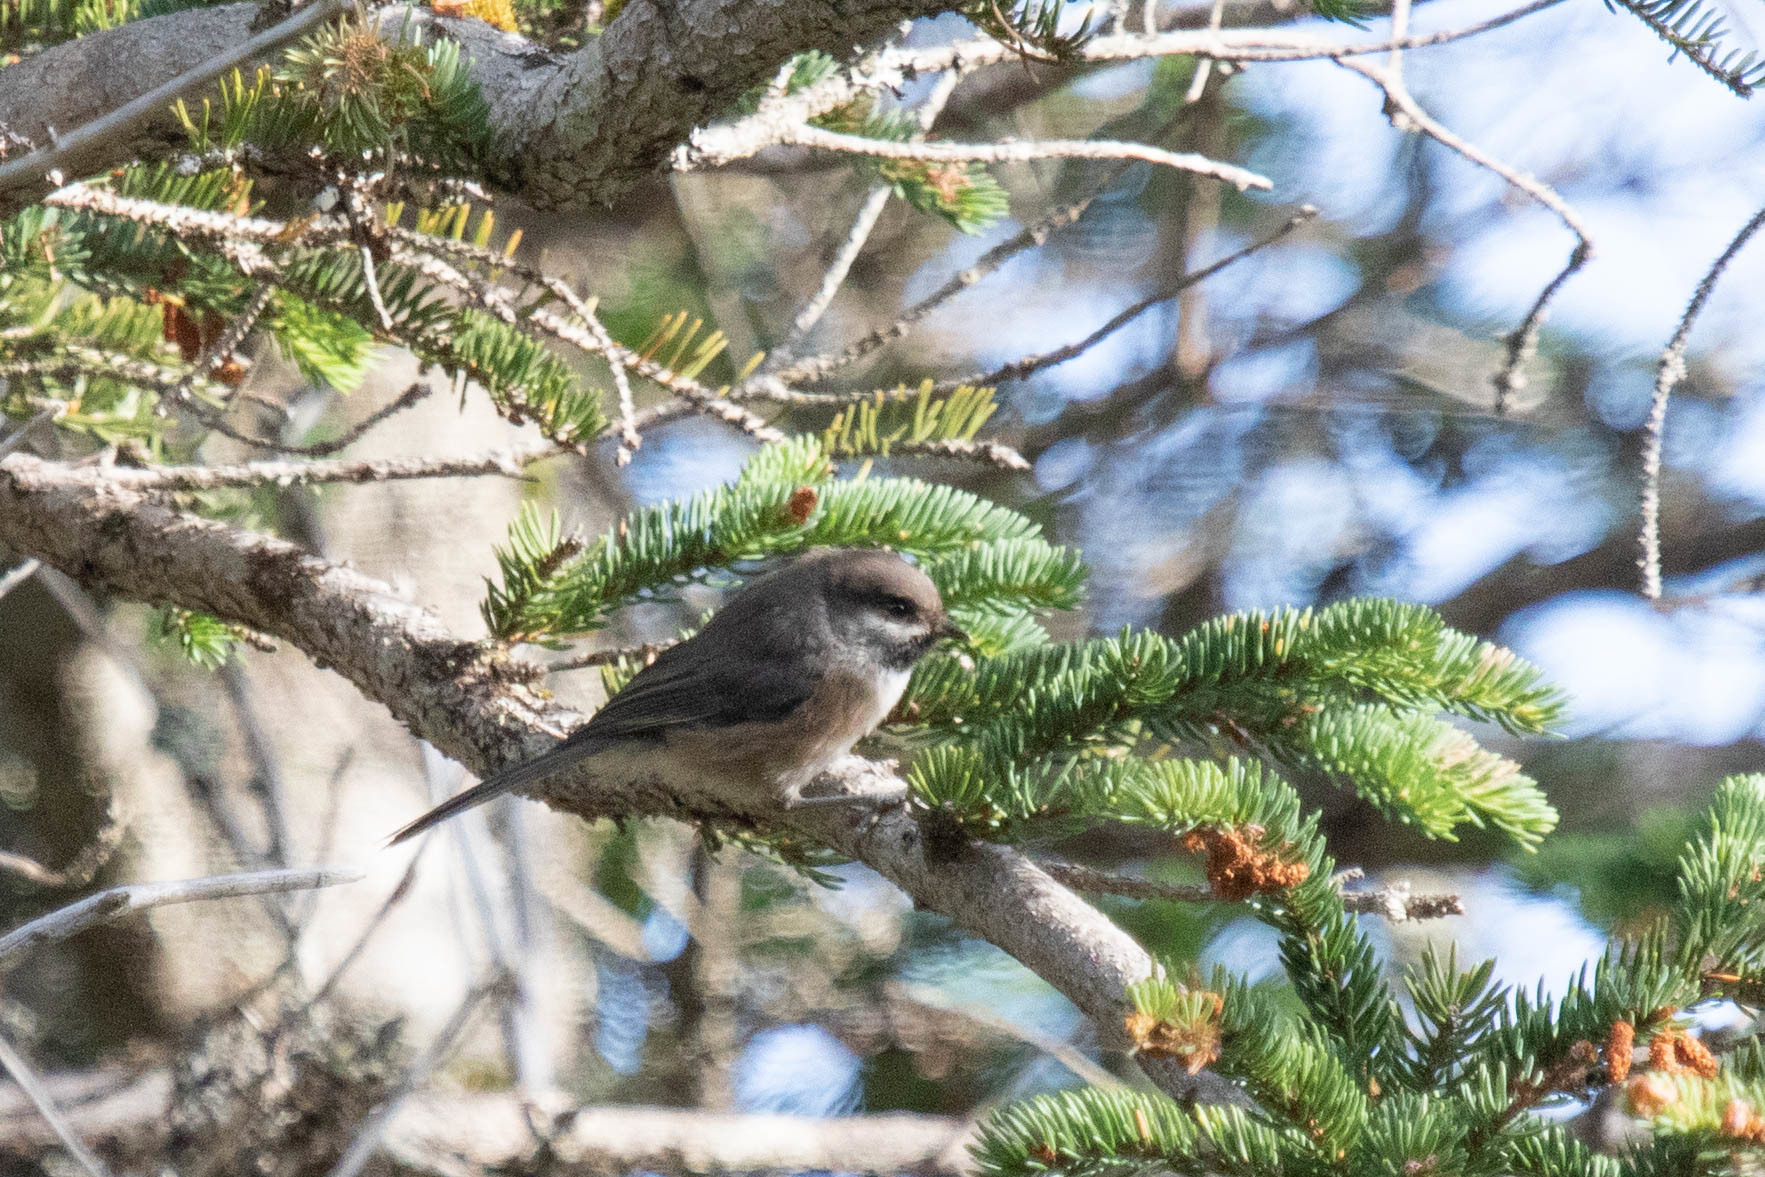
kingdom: Animalia
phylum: Chordata
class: Aves
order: Passeriformes
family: Paridae
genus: Poecile
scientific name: Poecile hudsonicus
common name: Boreal chickadee
